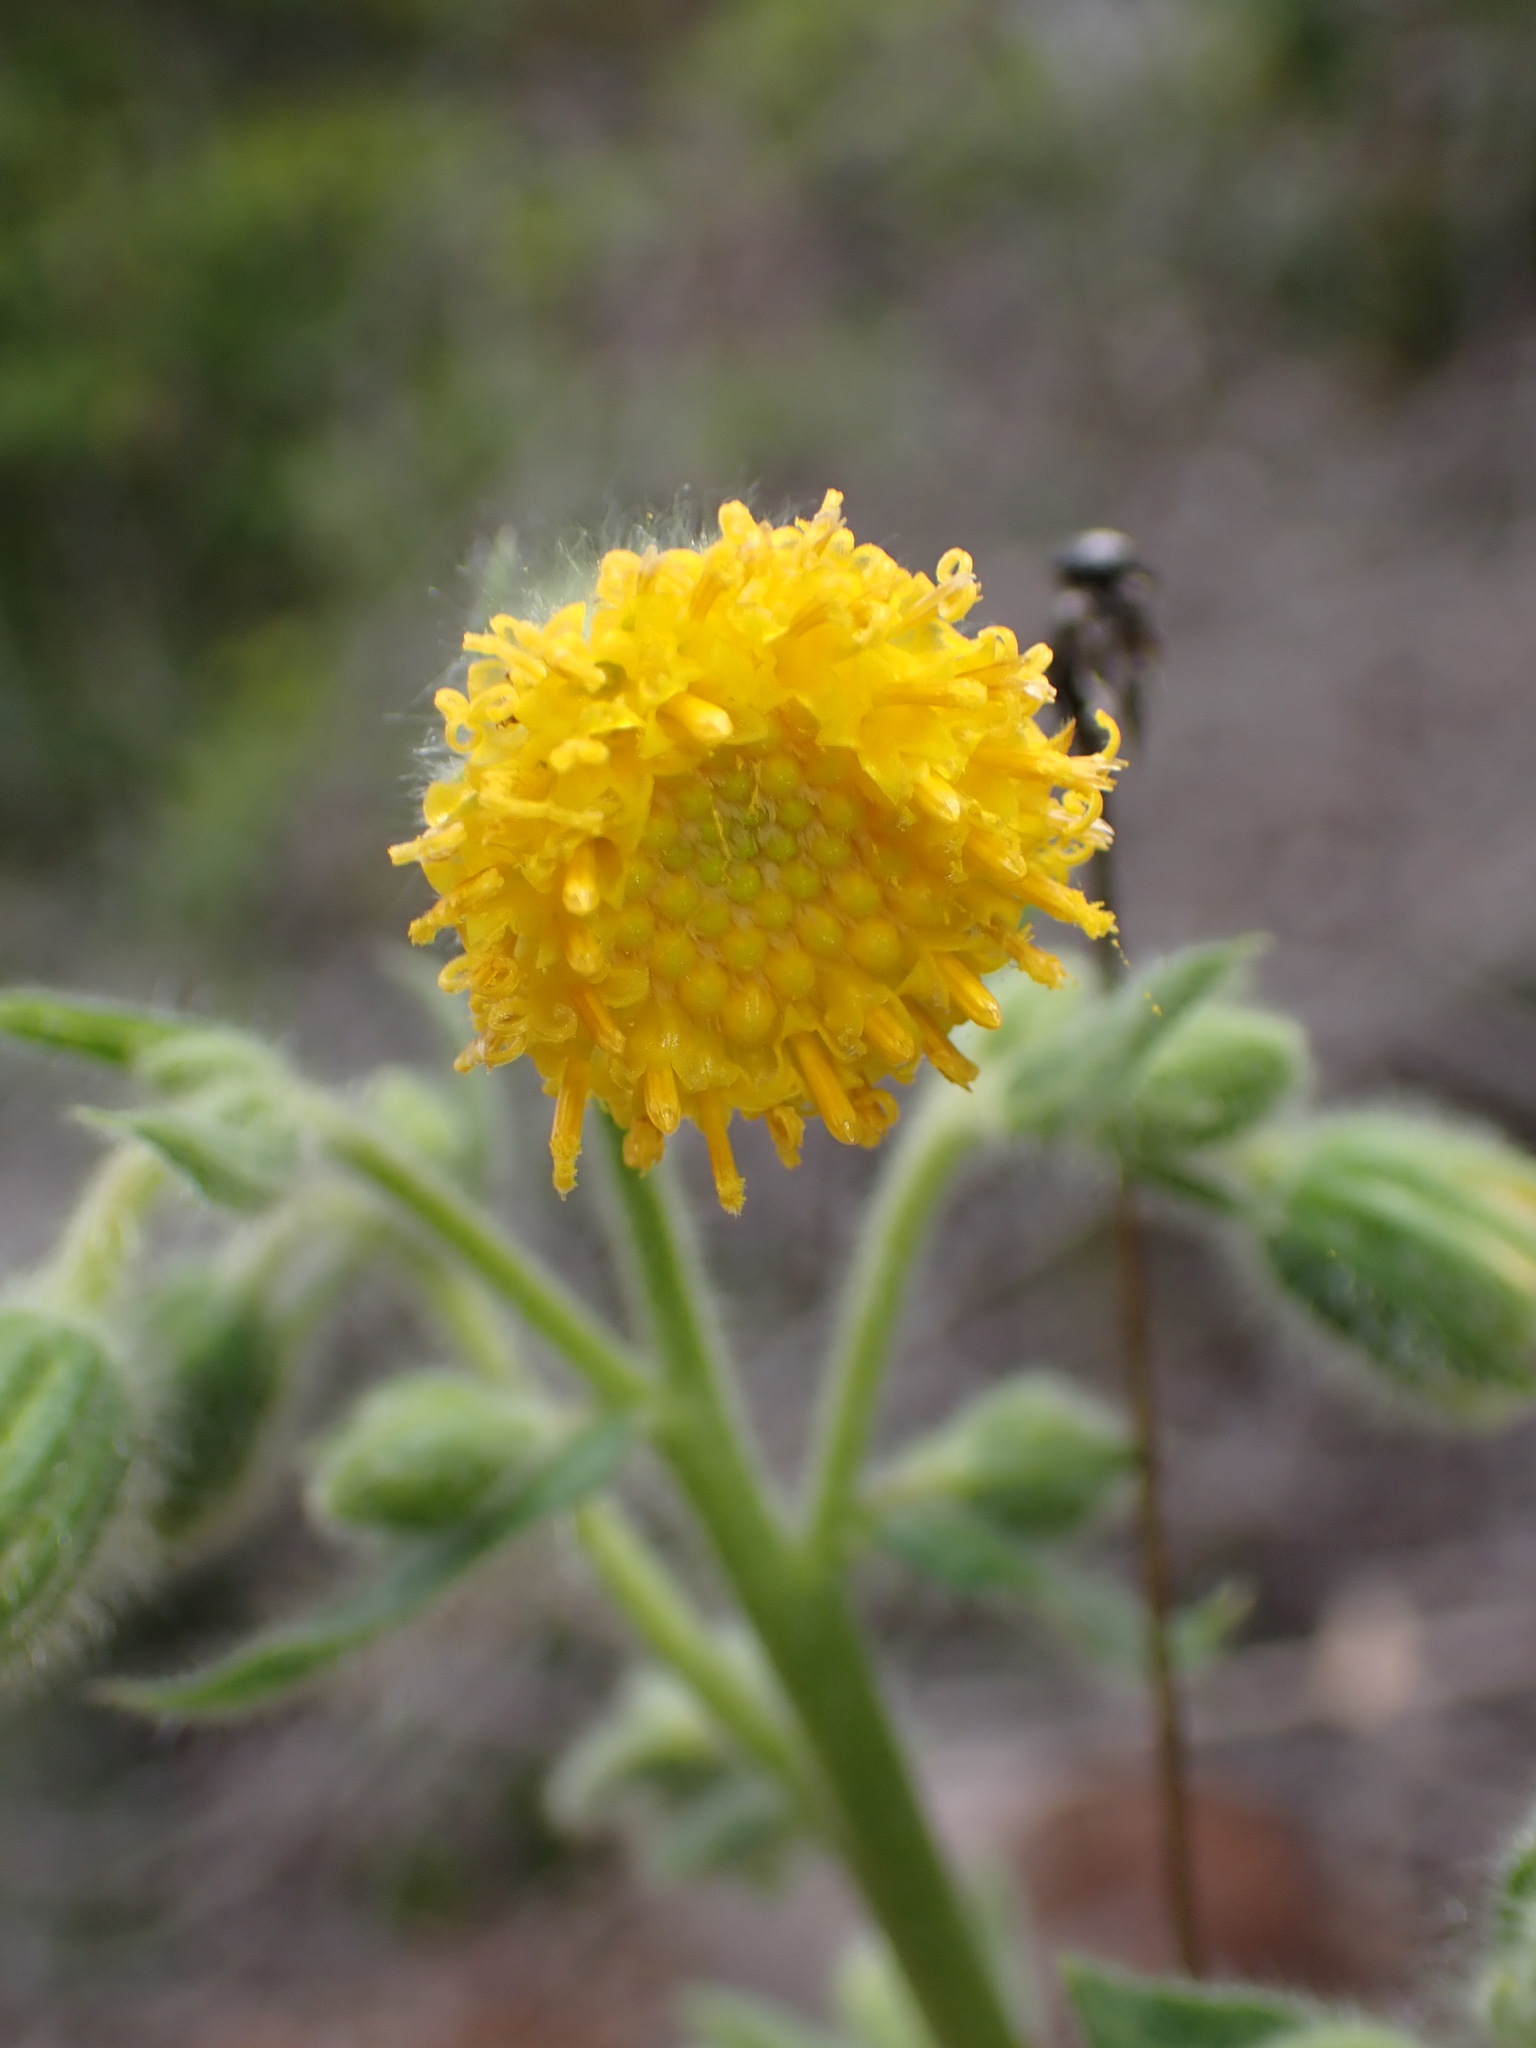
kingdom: Plantae
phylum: Tracheophyta
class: Magnoliopsida
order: Asterales
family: Asteraceae
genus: Arnica
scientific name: Arnica discoidea
